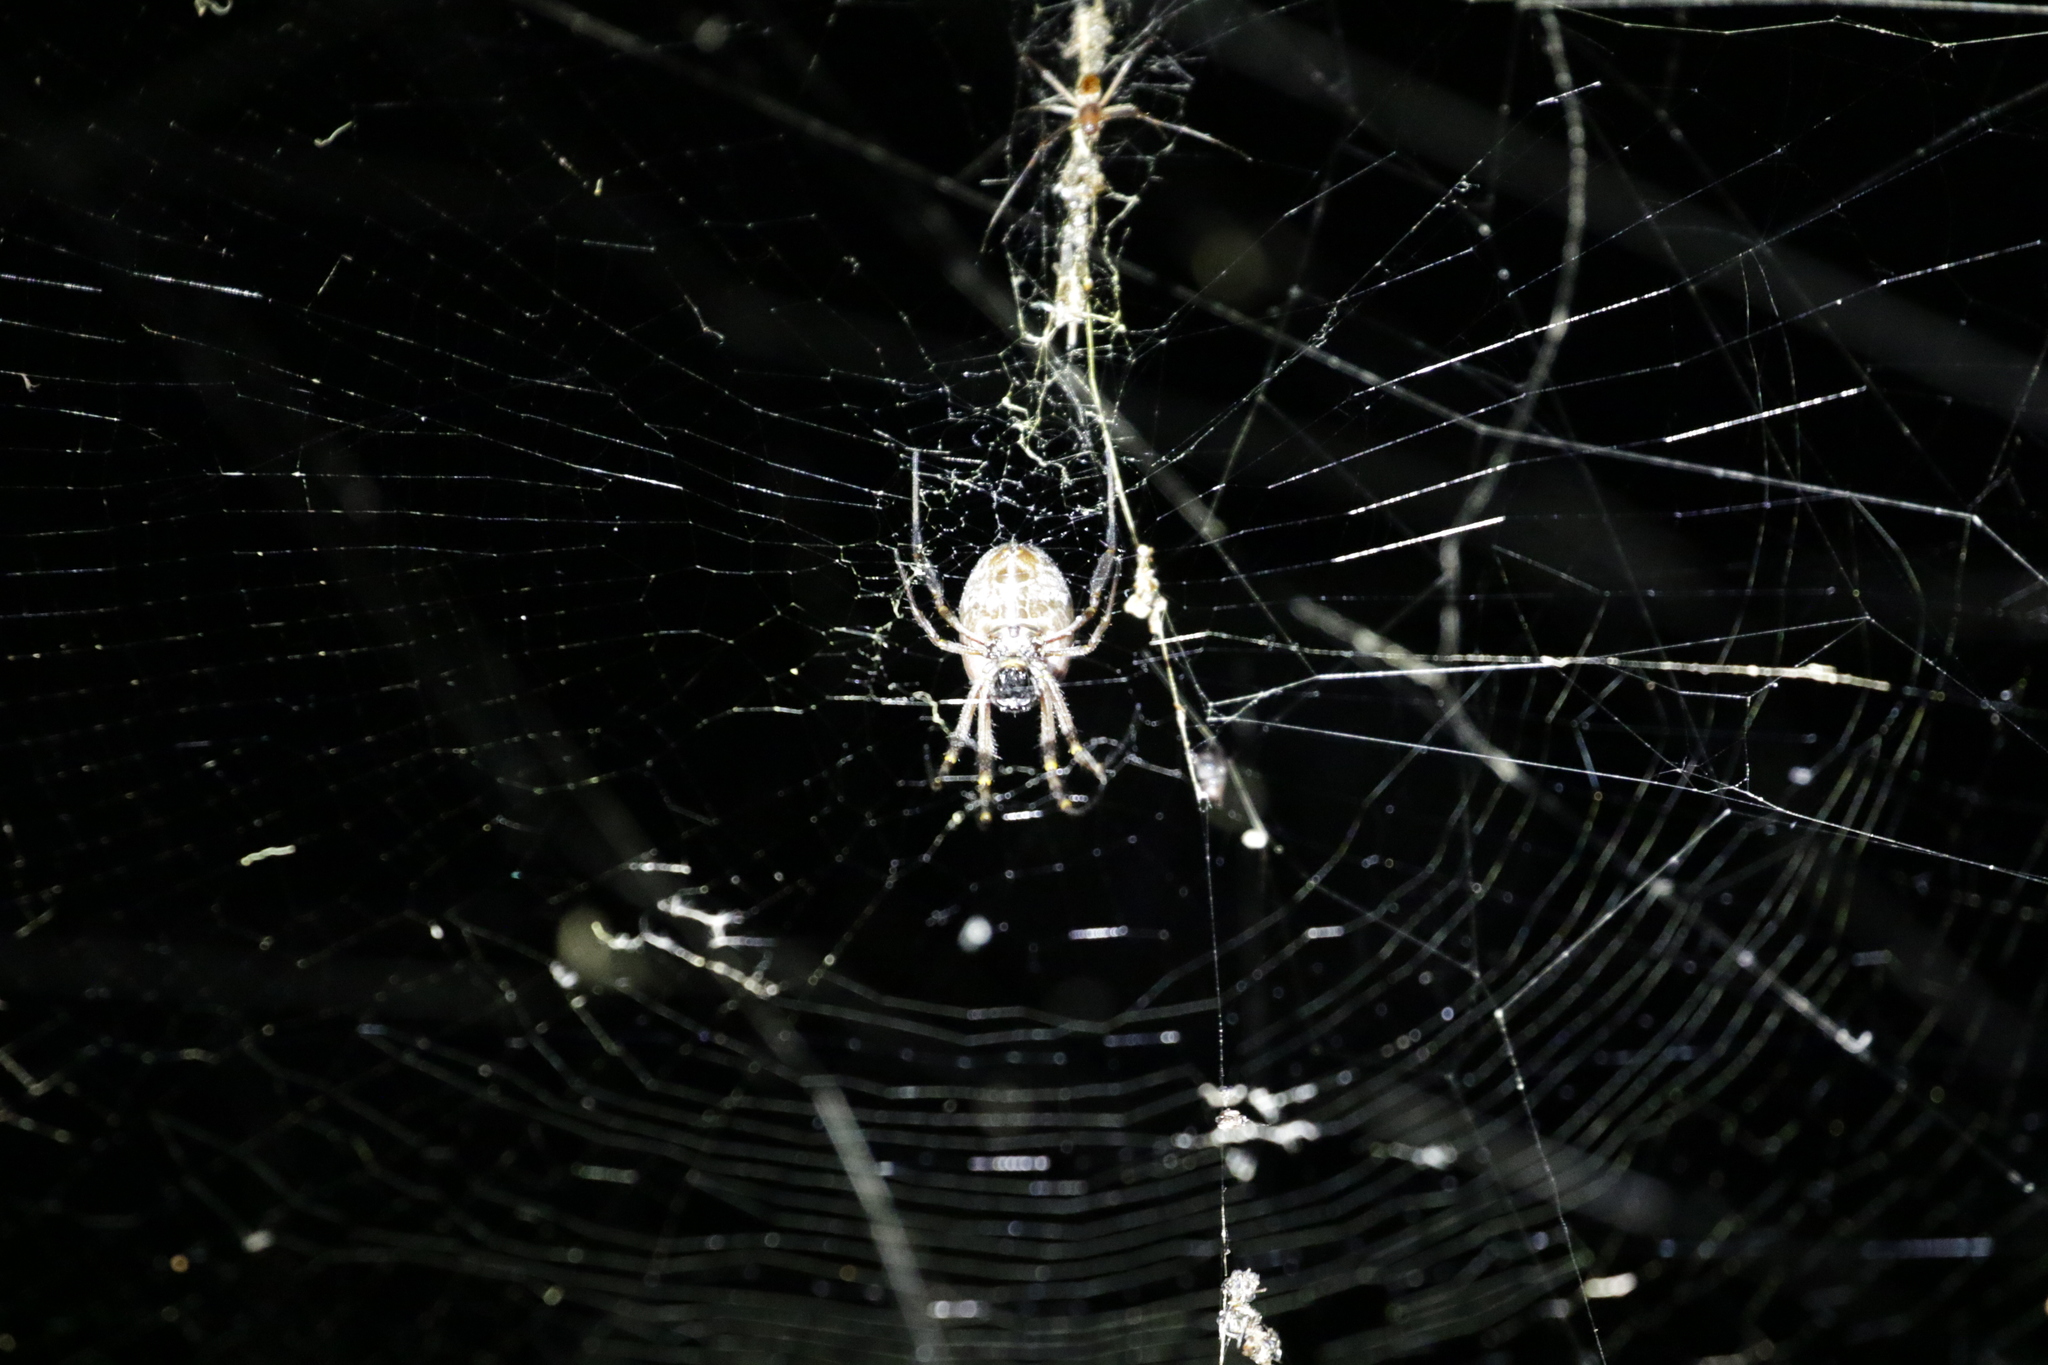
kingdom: Animalia
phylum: Arthropoda
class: Arachnida
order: Araneae
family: Araneidae
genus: Trichonephila
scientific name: Trichonephila edulis
